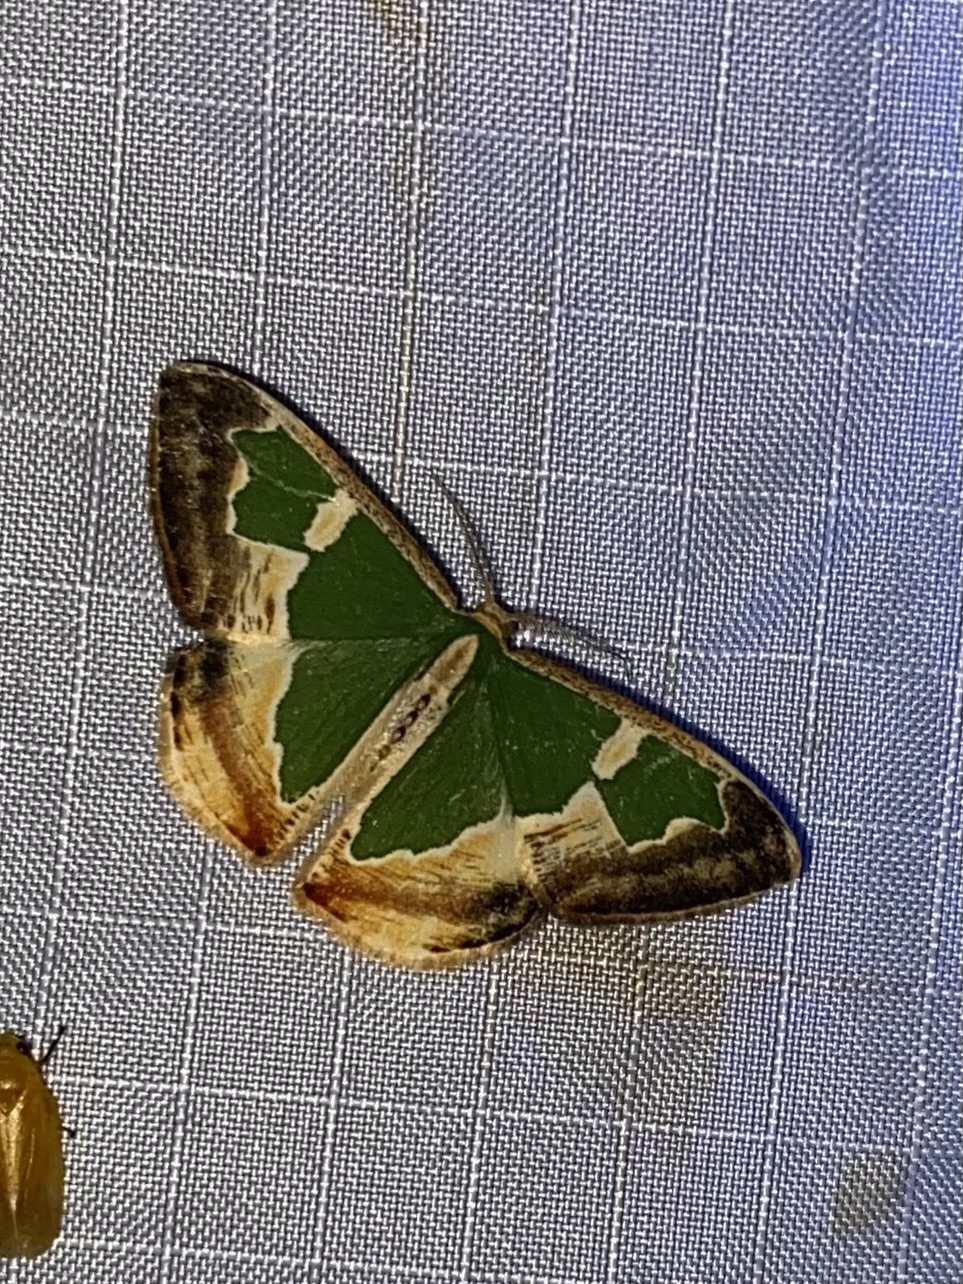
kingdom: Animalia
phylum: Arthropoda
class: Insecta
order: Lepidoptera
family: Geometridae
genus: Oospila
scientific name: Oospila venezuelata
